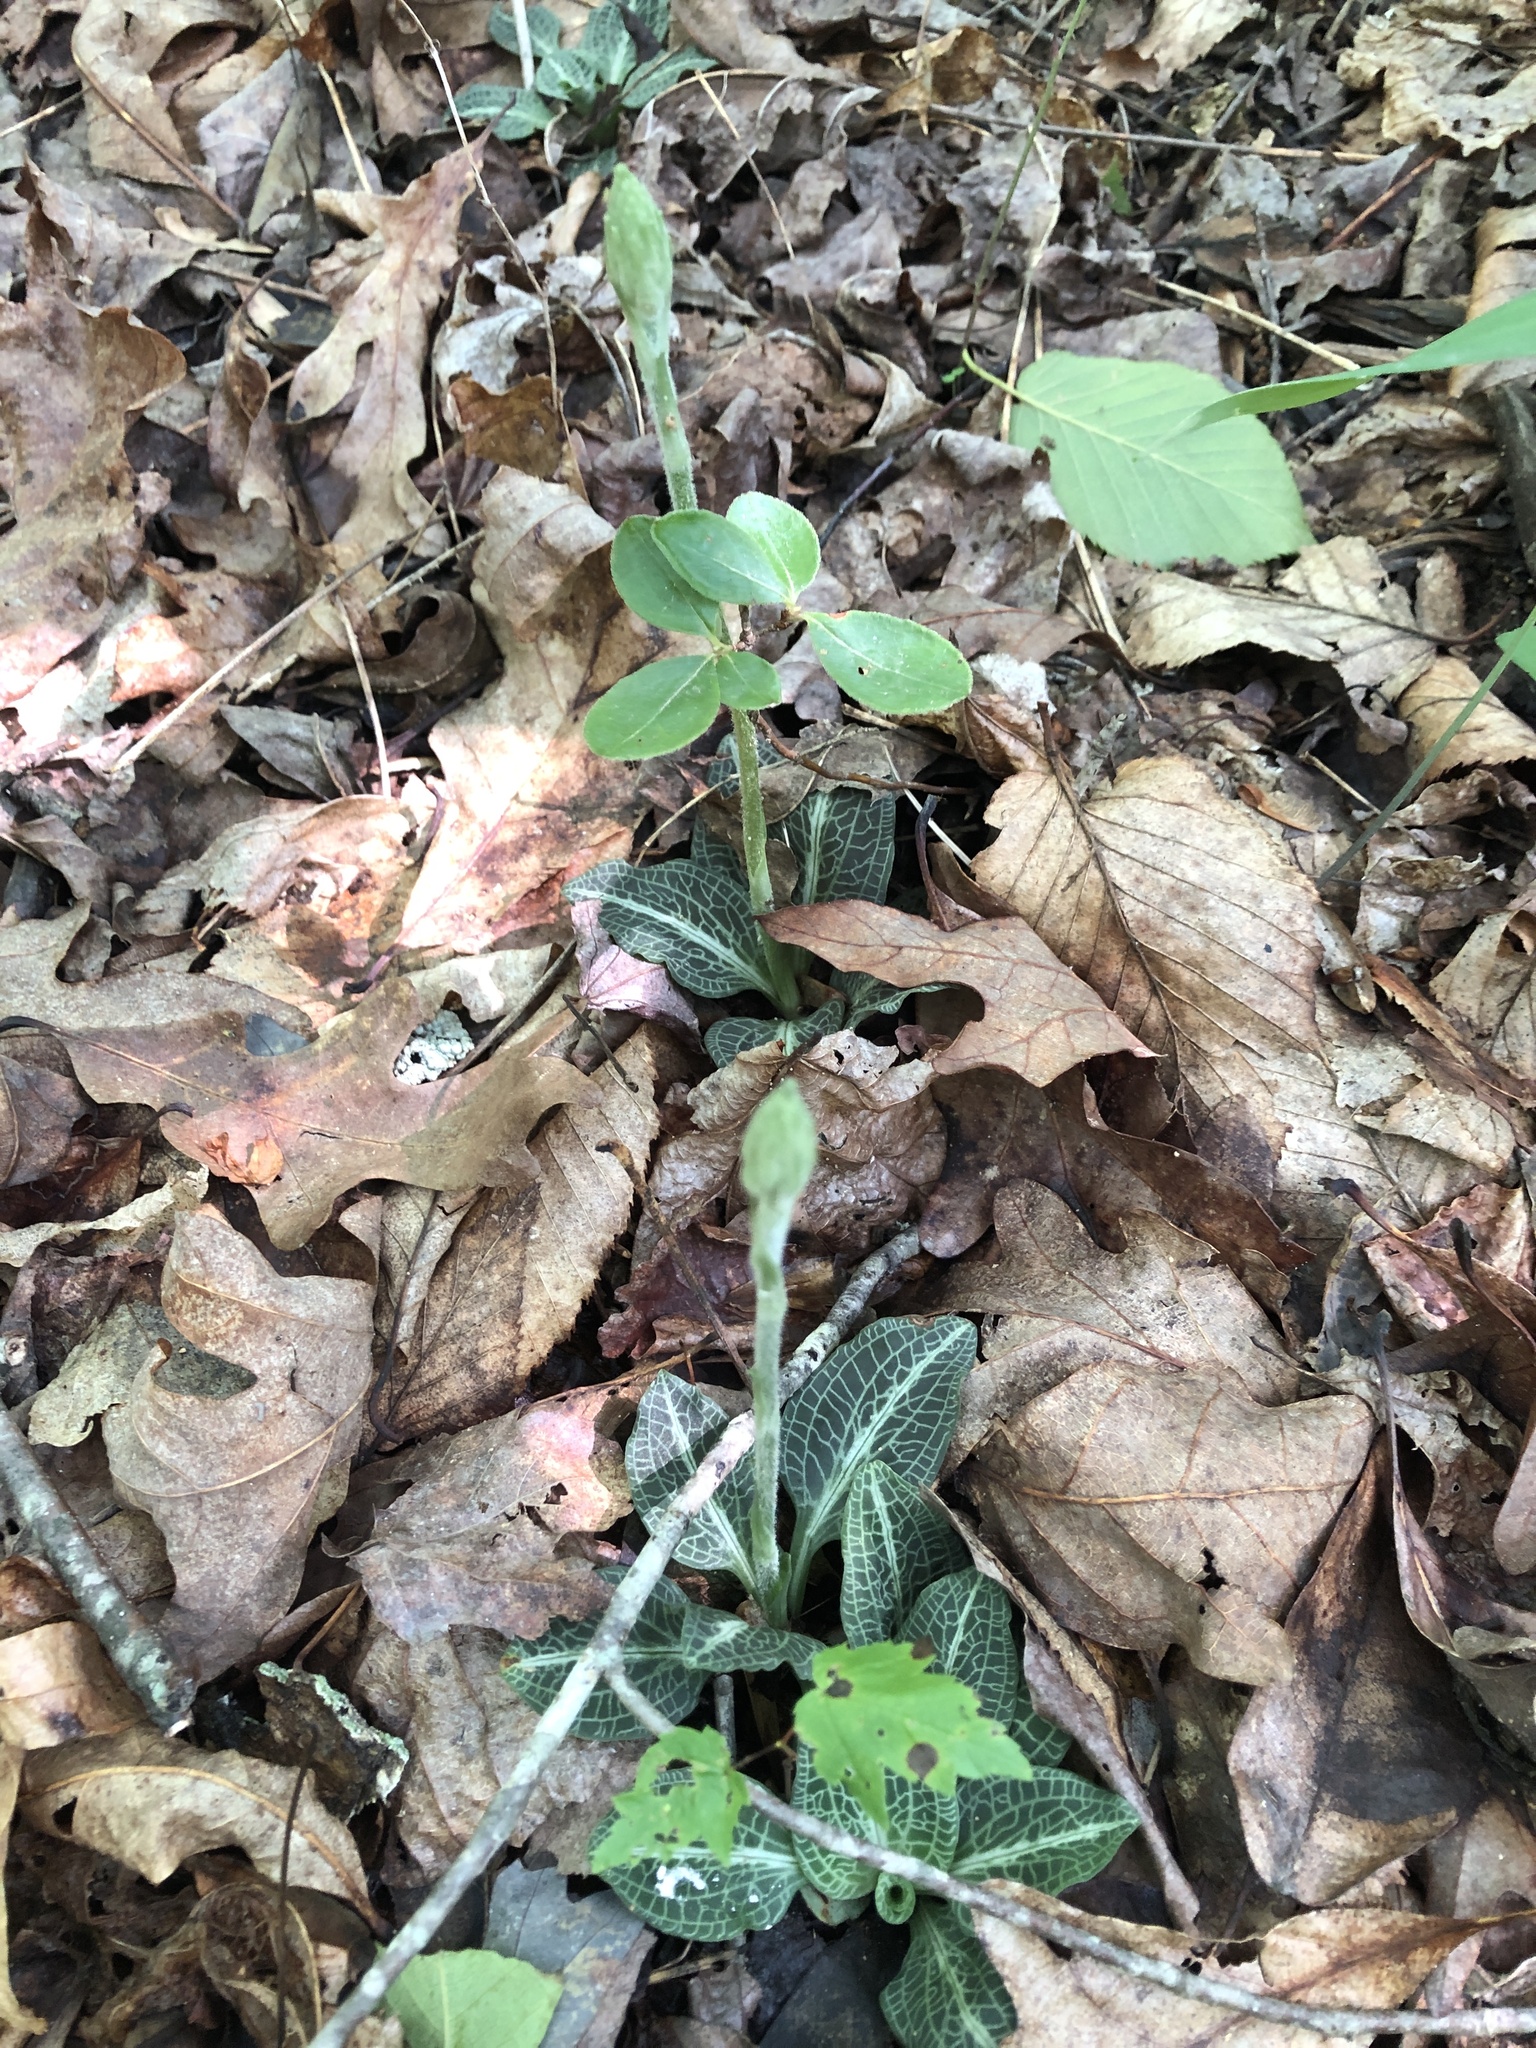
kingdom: Plantae
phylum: Tracheophyta
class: Liliopsida
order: Asparagales
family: Orchidaceae
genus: Goodyera
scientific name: Goodyera pubescens
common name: Downy rattlesnake-plantain
